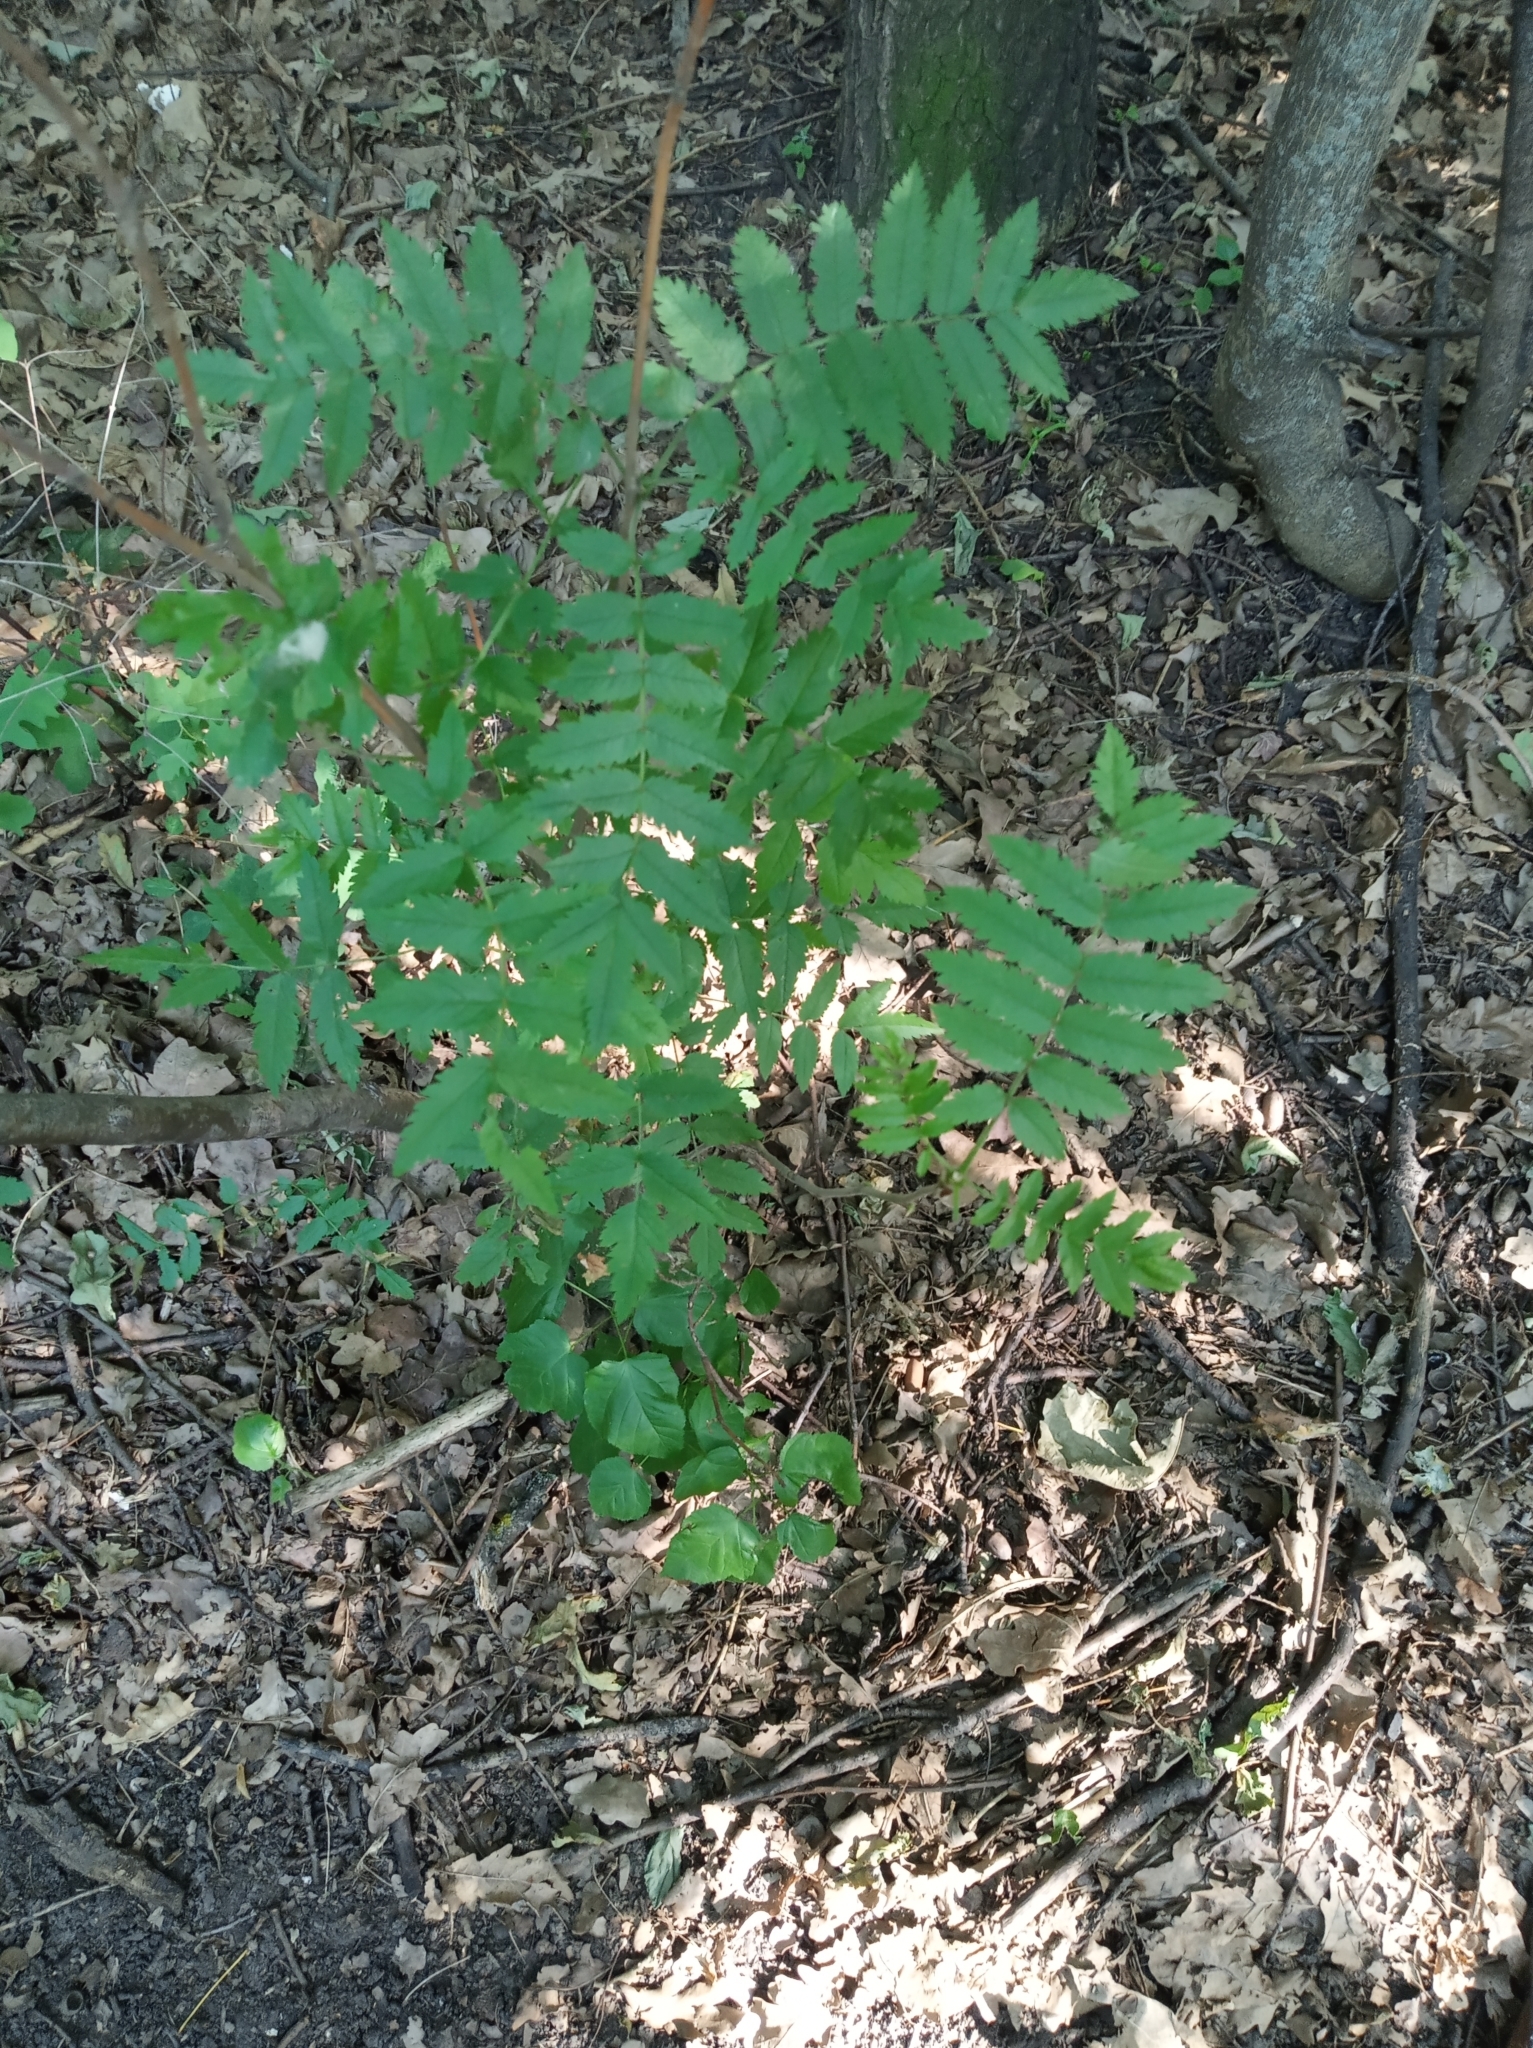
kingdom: Plantae
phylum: Tracheophyta
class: Magnoliopsida
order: Rosales
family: Rosaceae
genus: Sorbus
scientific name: Sorbus aucuparia
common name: Rowan
